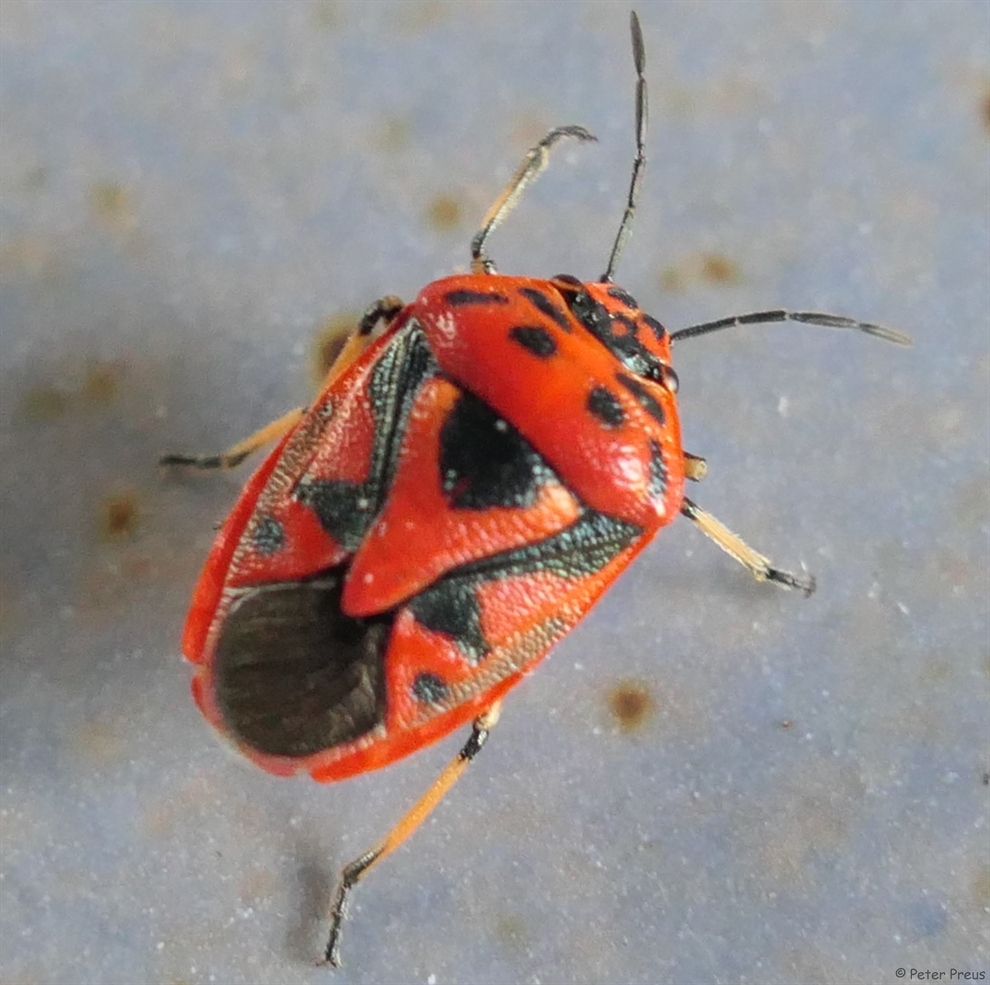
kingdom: Animalia
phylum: Arthropoda
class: Insecta
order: Hemiptera
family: Pentatomidae
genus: Eurydema
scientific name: Eurydema ornata
